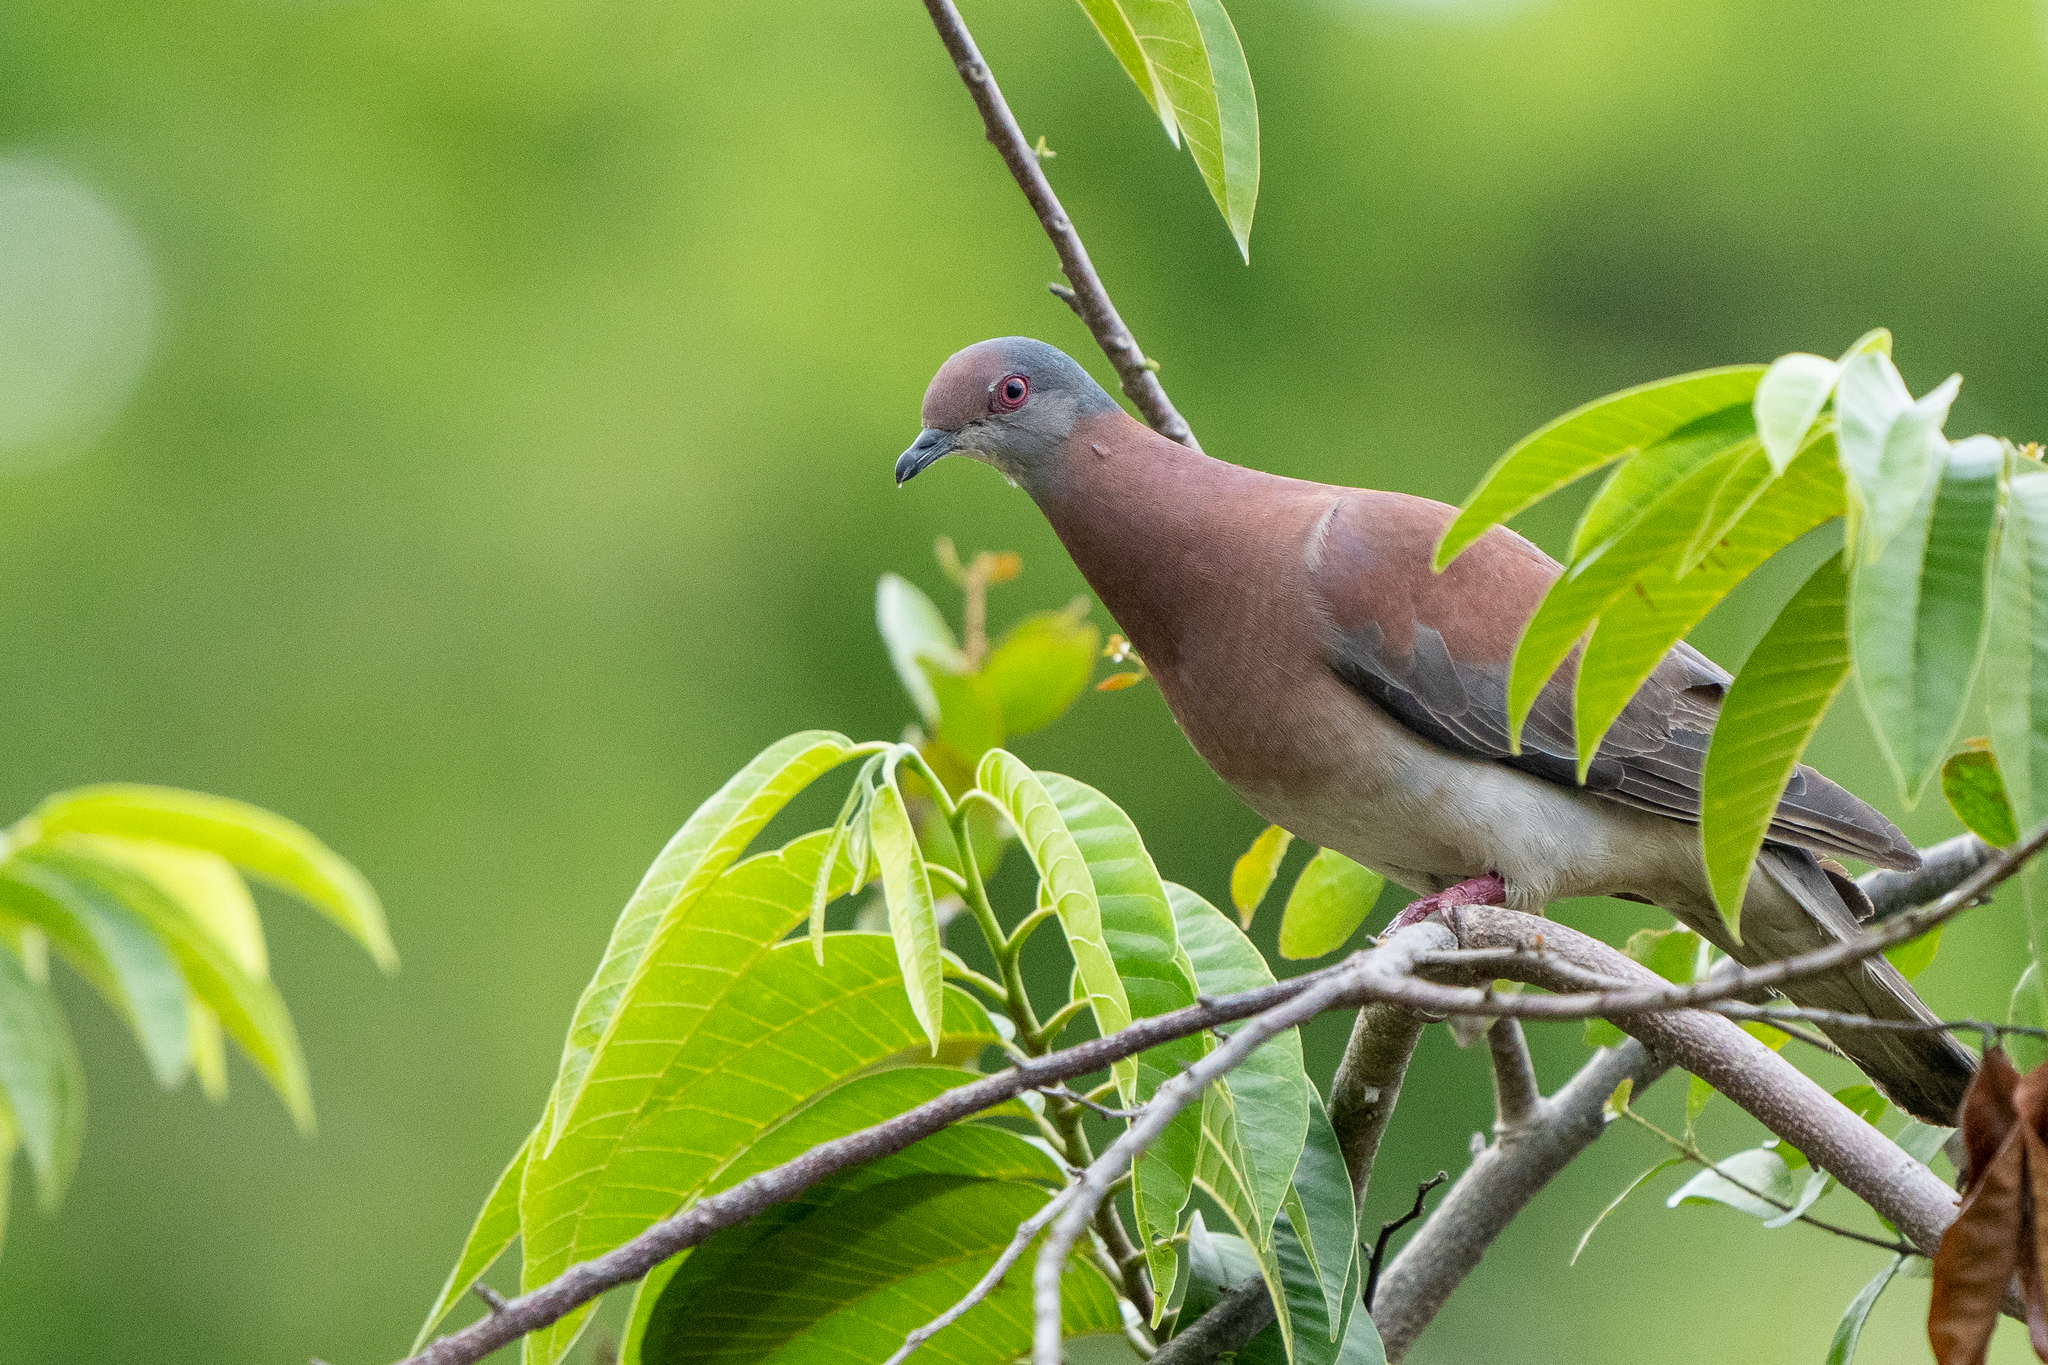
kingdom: Animalia
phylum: Chordata
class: Aves
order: Columbiformes
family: Columbidae
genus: Patagioenas
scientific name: Patagioenas cayennensis
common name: Pale-vented pigeon
